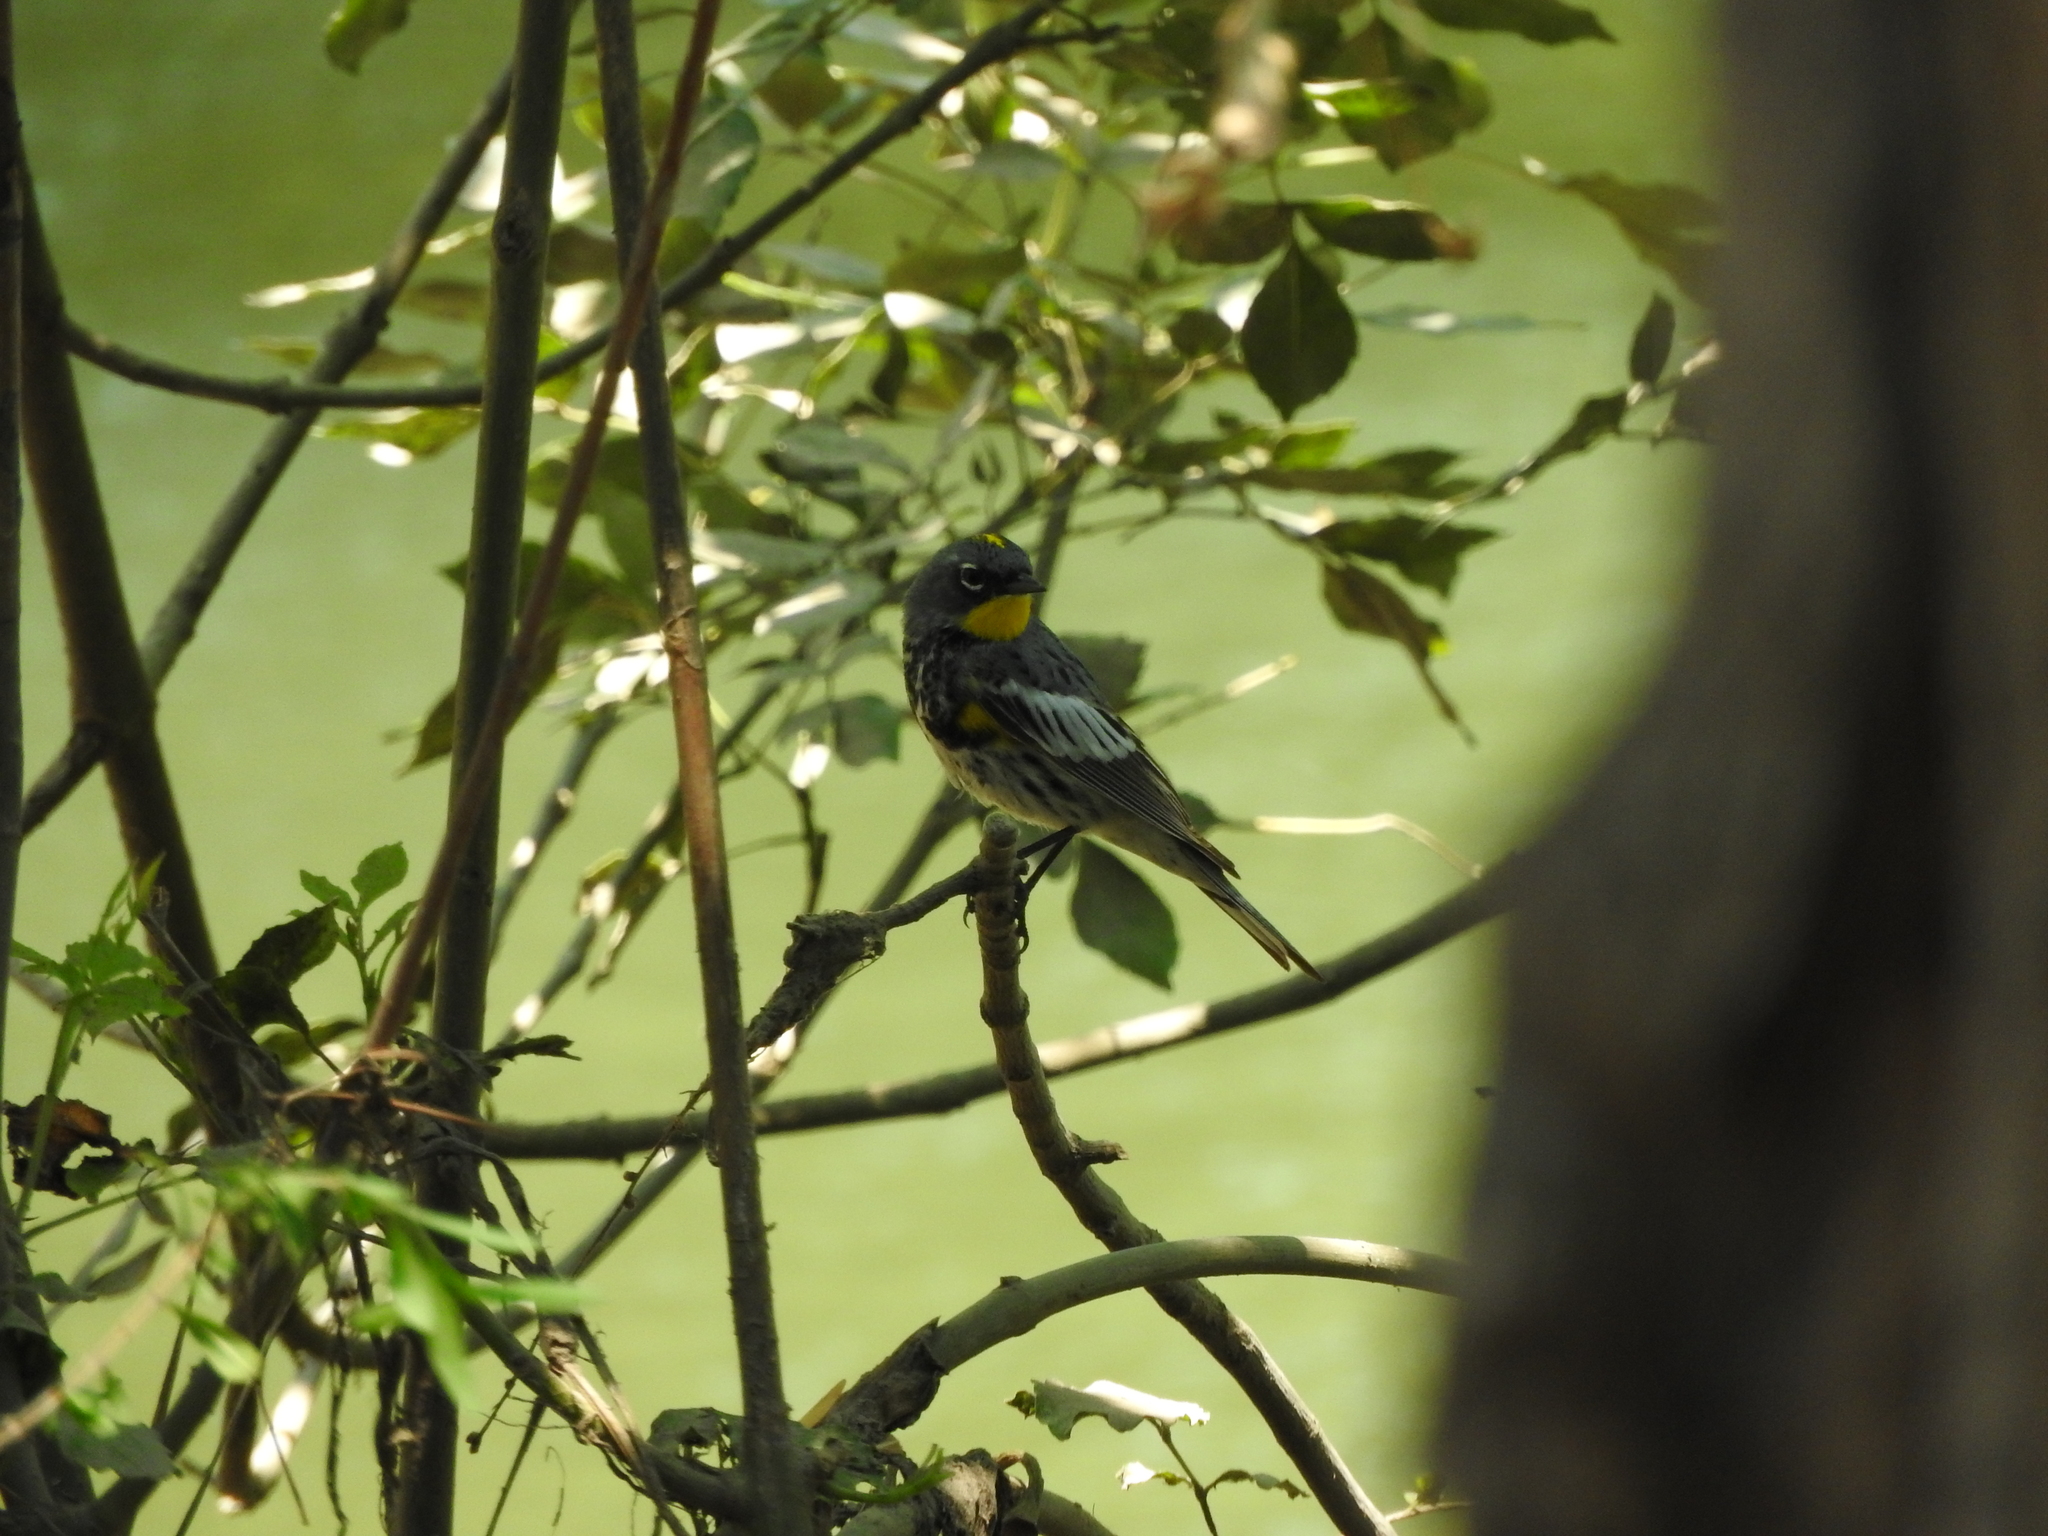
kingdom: Animalia
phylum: Chordata
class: Aves
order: Passeriformes
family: Parulidae
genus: Setophaga
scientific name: Setophaga coronata
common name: Myrtle warbler
